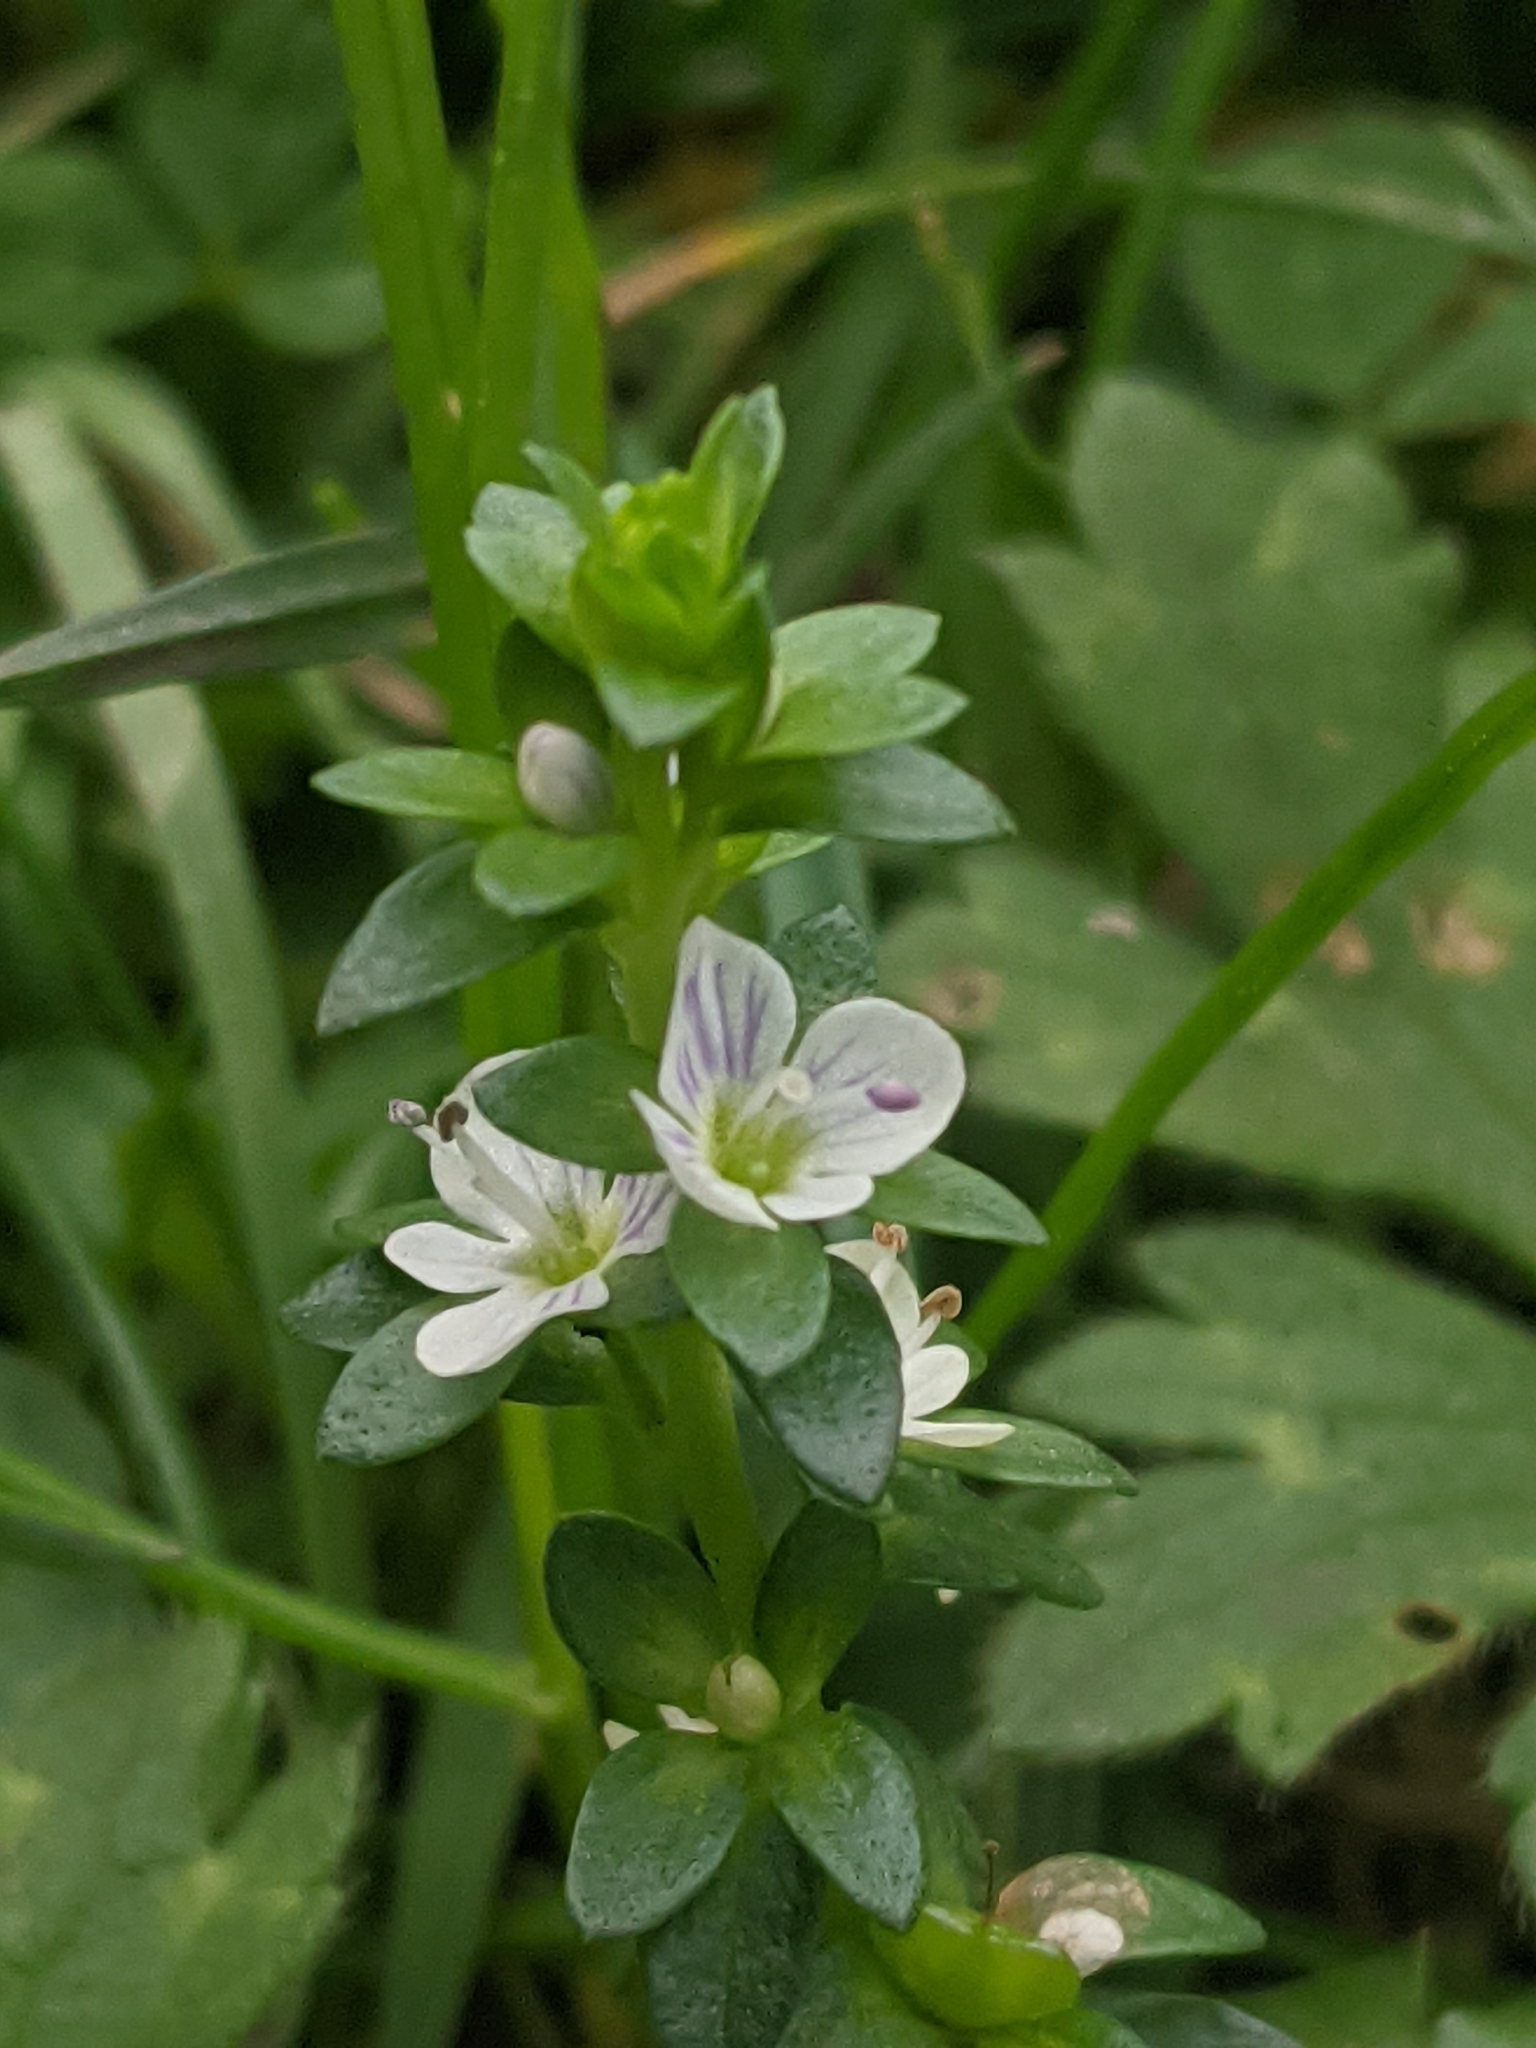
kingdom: Plantae
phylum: Tracheophyta
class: Magnoliopsida
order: Lamiales
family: Plantaginaceae
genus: Veronica
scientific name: Veronica serpyllifolia
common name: Thyme-leaved speedwell
